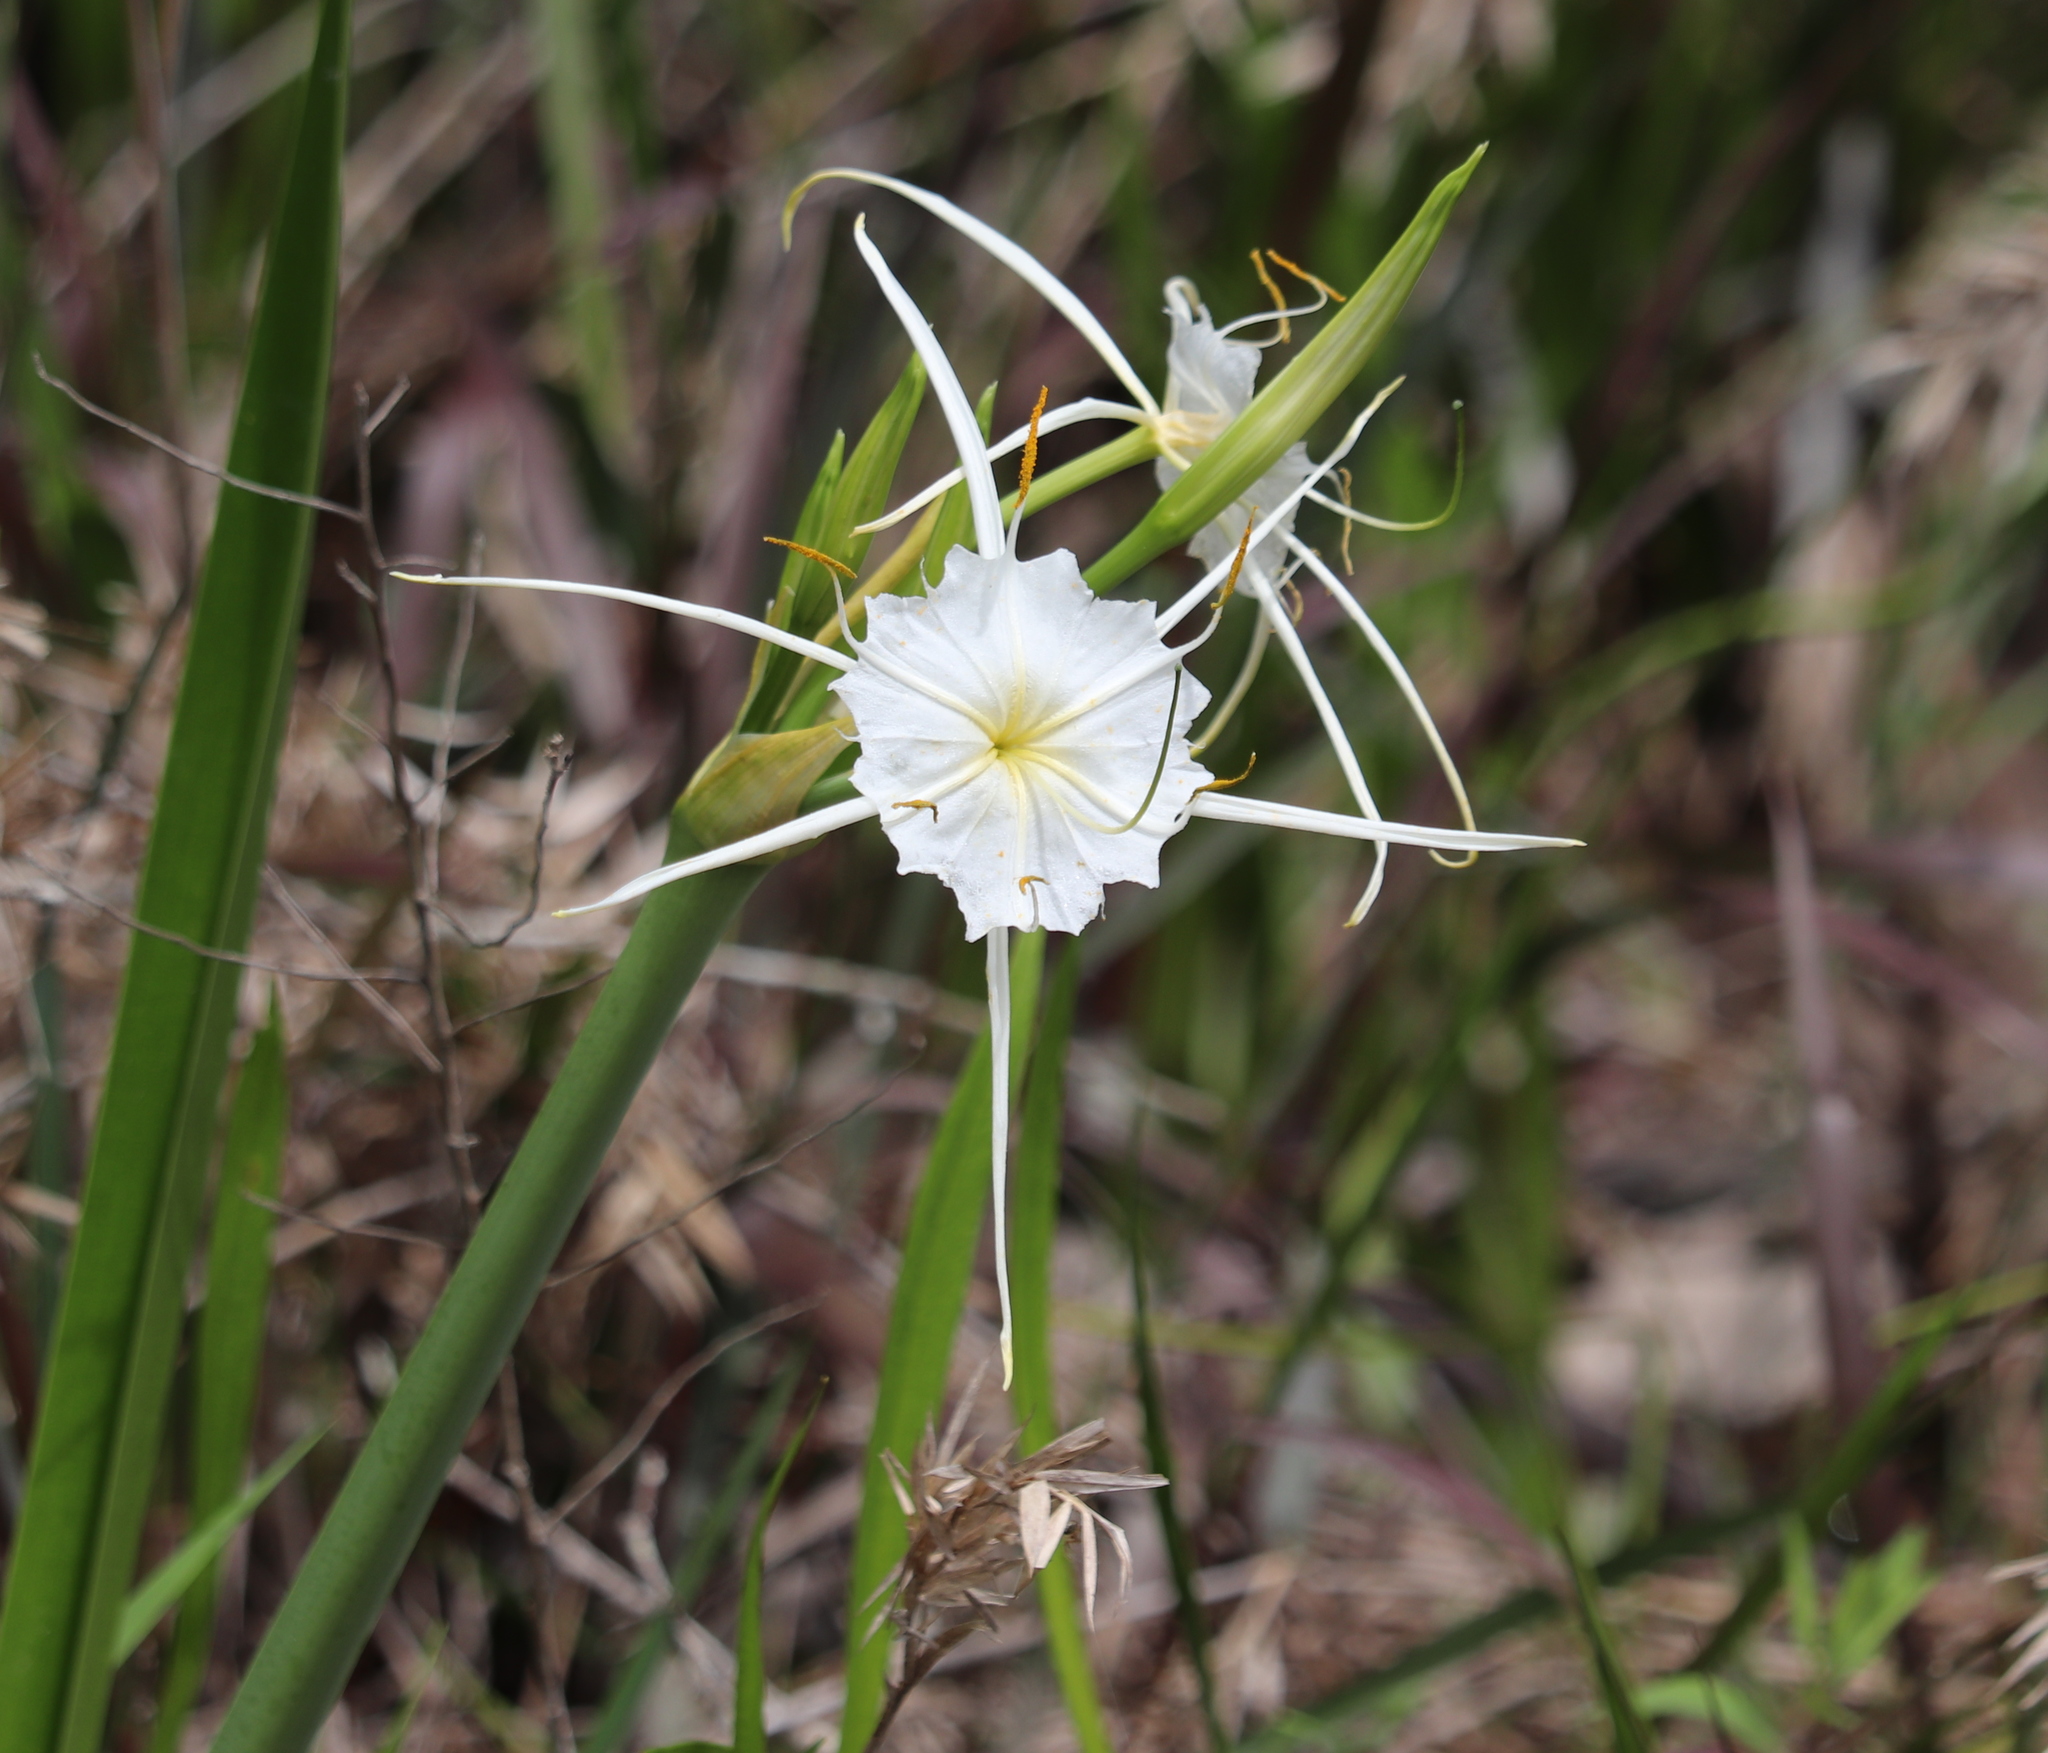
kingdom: Plantae
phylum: Tracheophyta
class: Liliopsida
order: Asparagales
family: Amaryllidaceae
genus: Hymenocallis
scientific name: Hymenocallis liriosme
